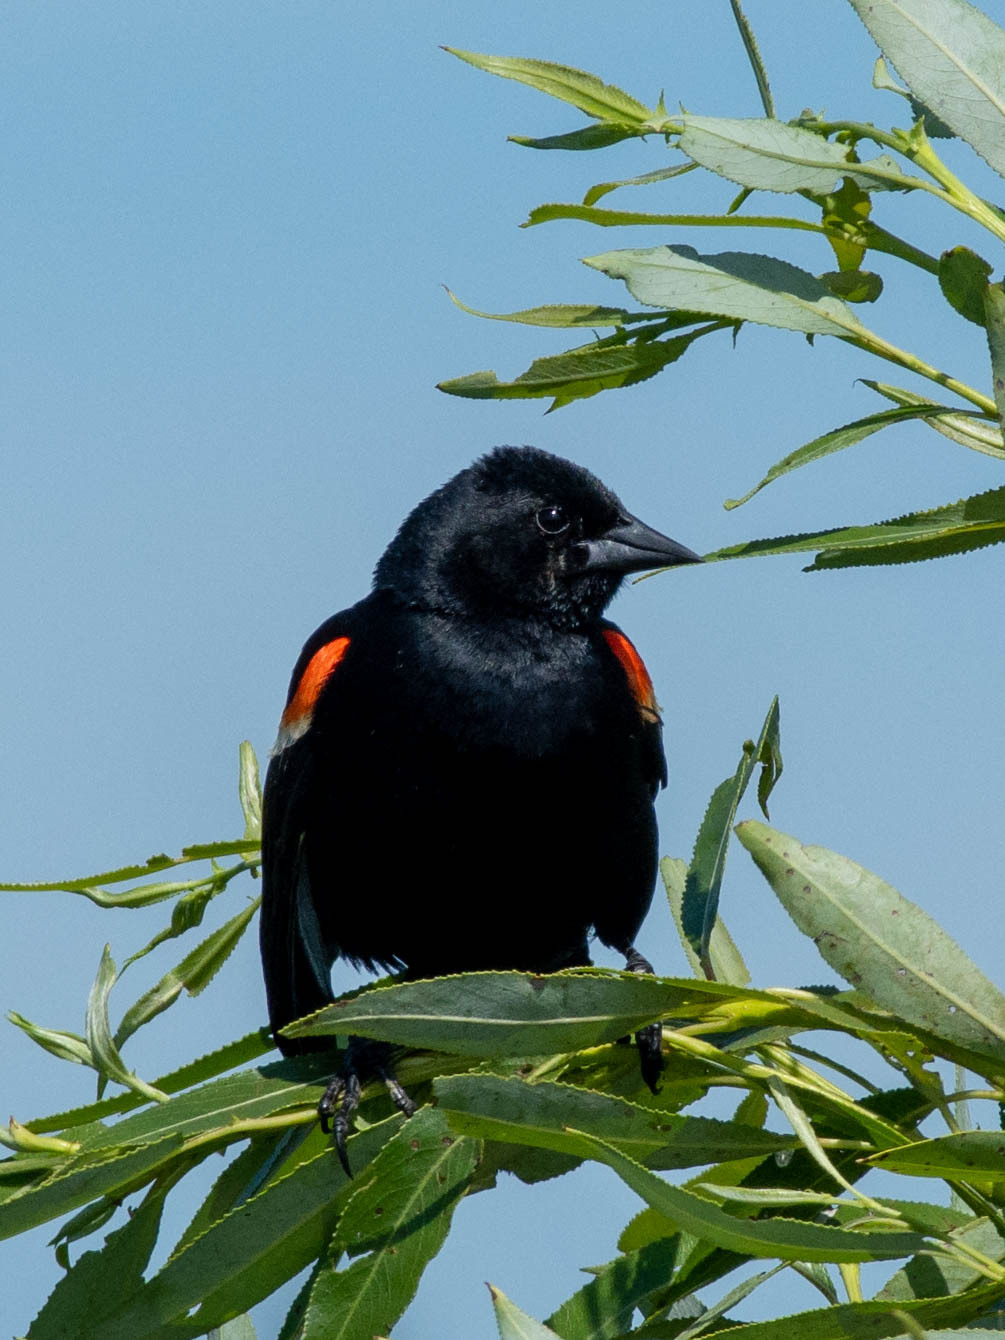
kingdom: Animalia
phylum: Chordata
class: Aves
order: Passeriformes
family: Icteridae
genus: Agelaius
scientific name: Agelaius phoeniceus
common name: Red-winged blackbird
